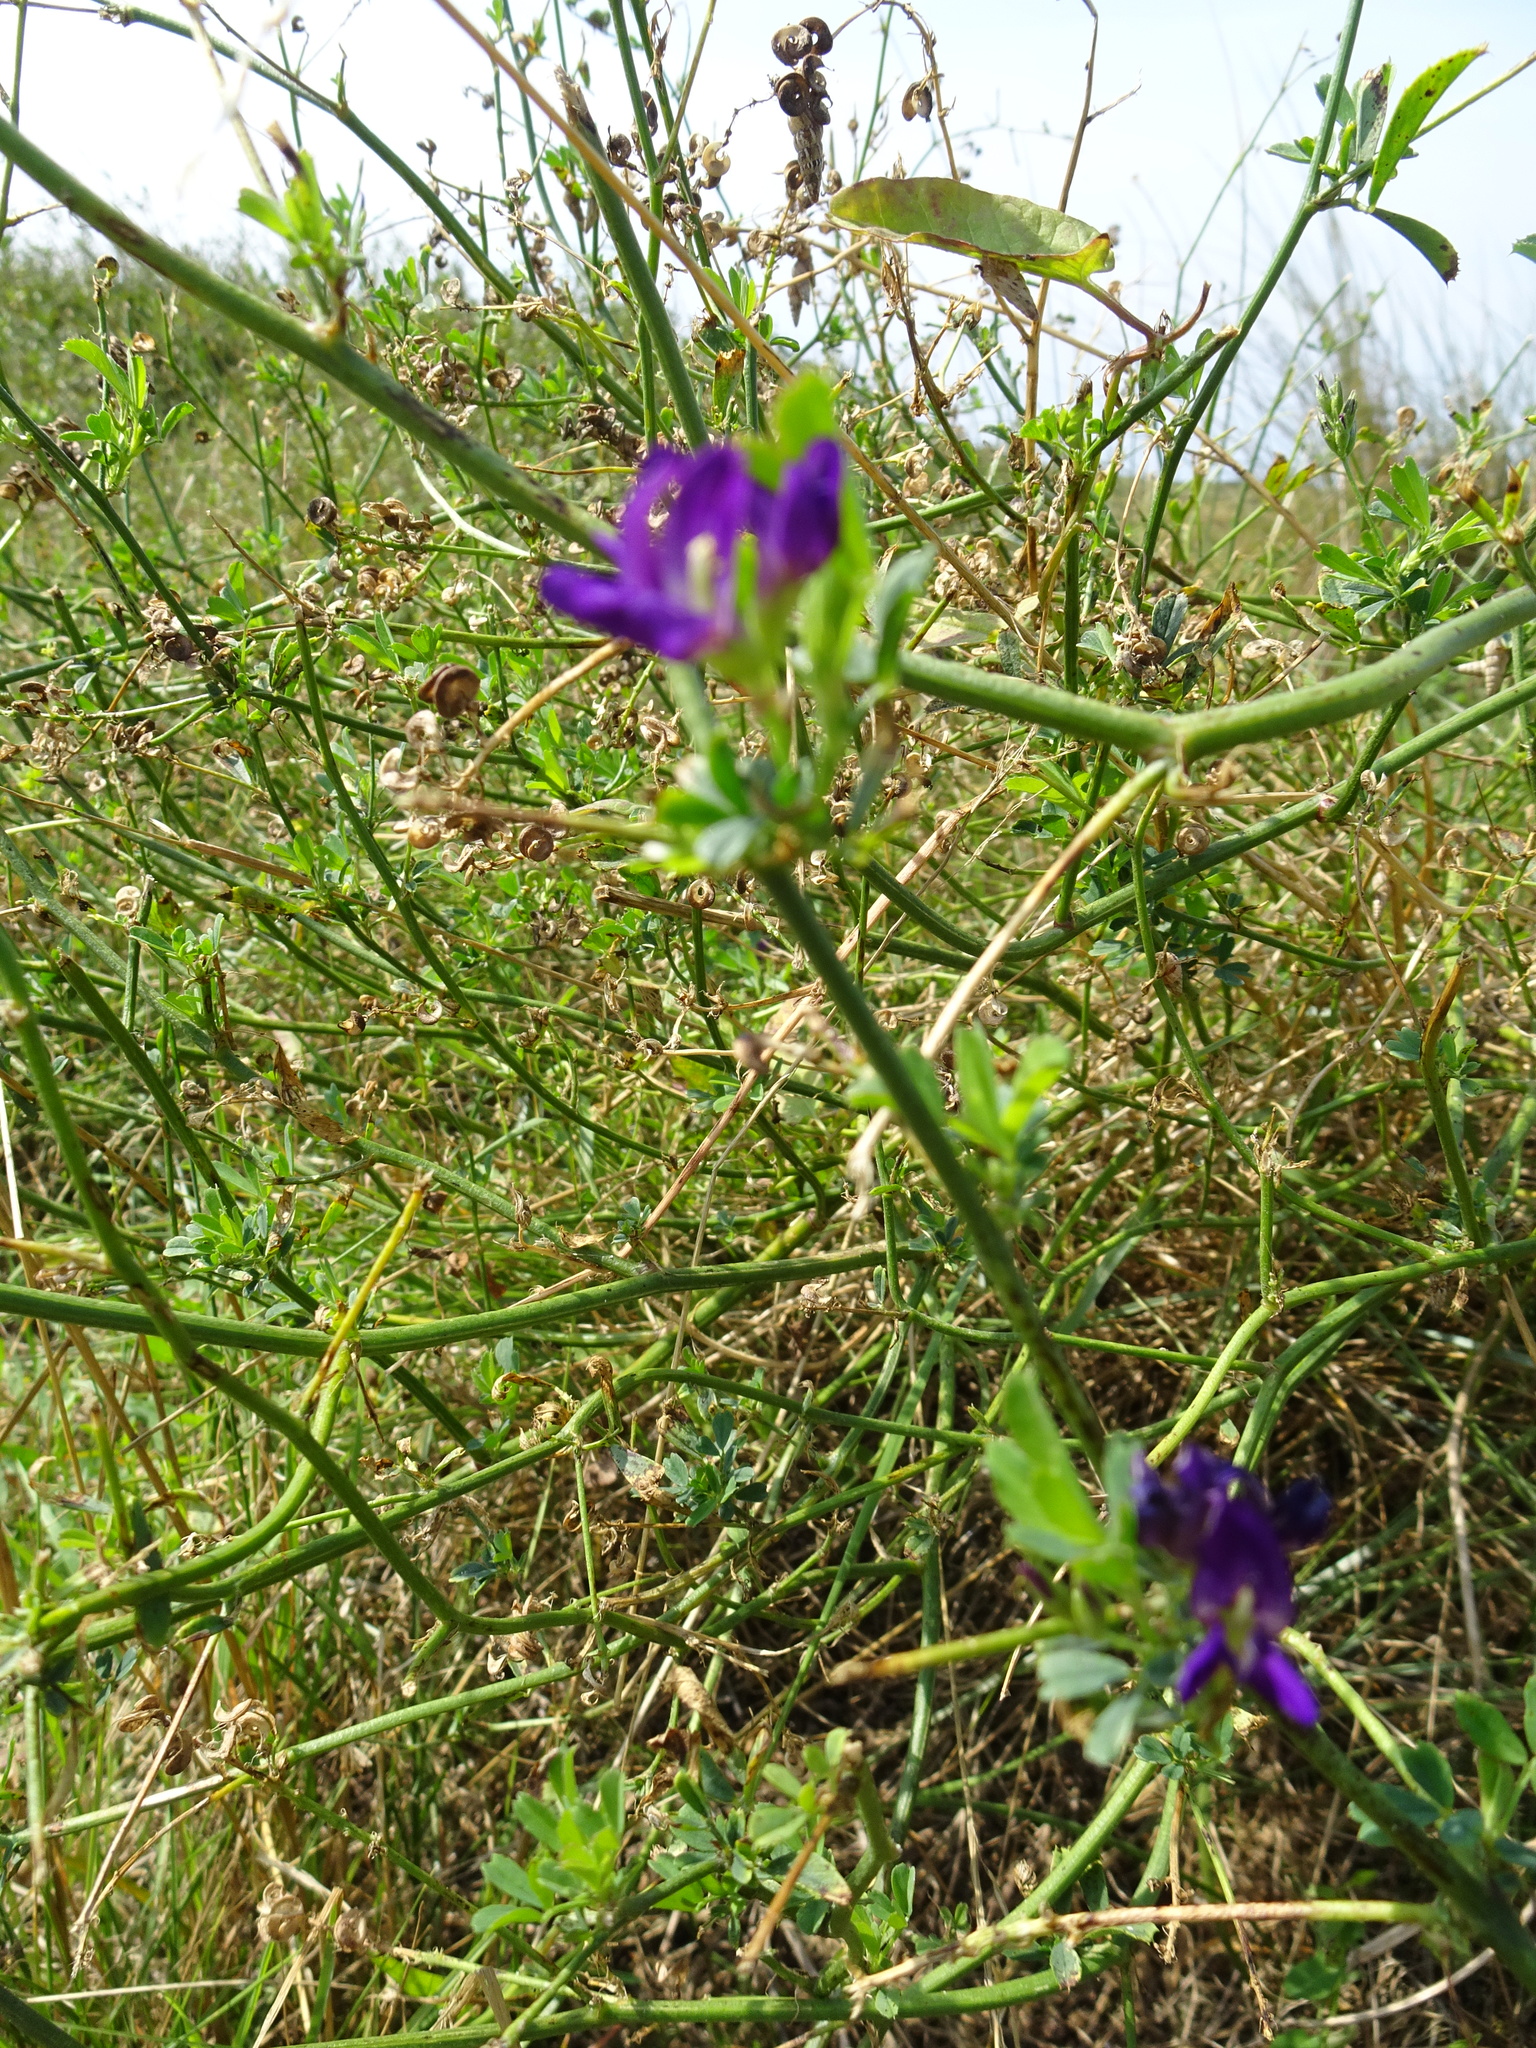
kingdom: Plantae
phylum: Tracheophyta
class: Magnoliopsida
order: Fabales
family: Fabaceae
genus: Medicago
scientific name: Medicago sativa
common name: Alfalfa
